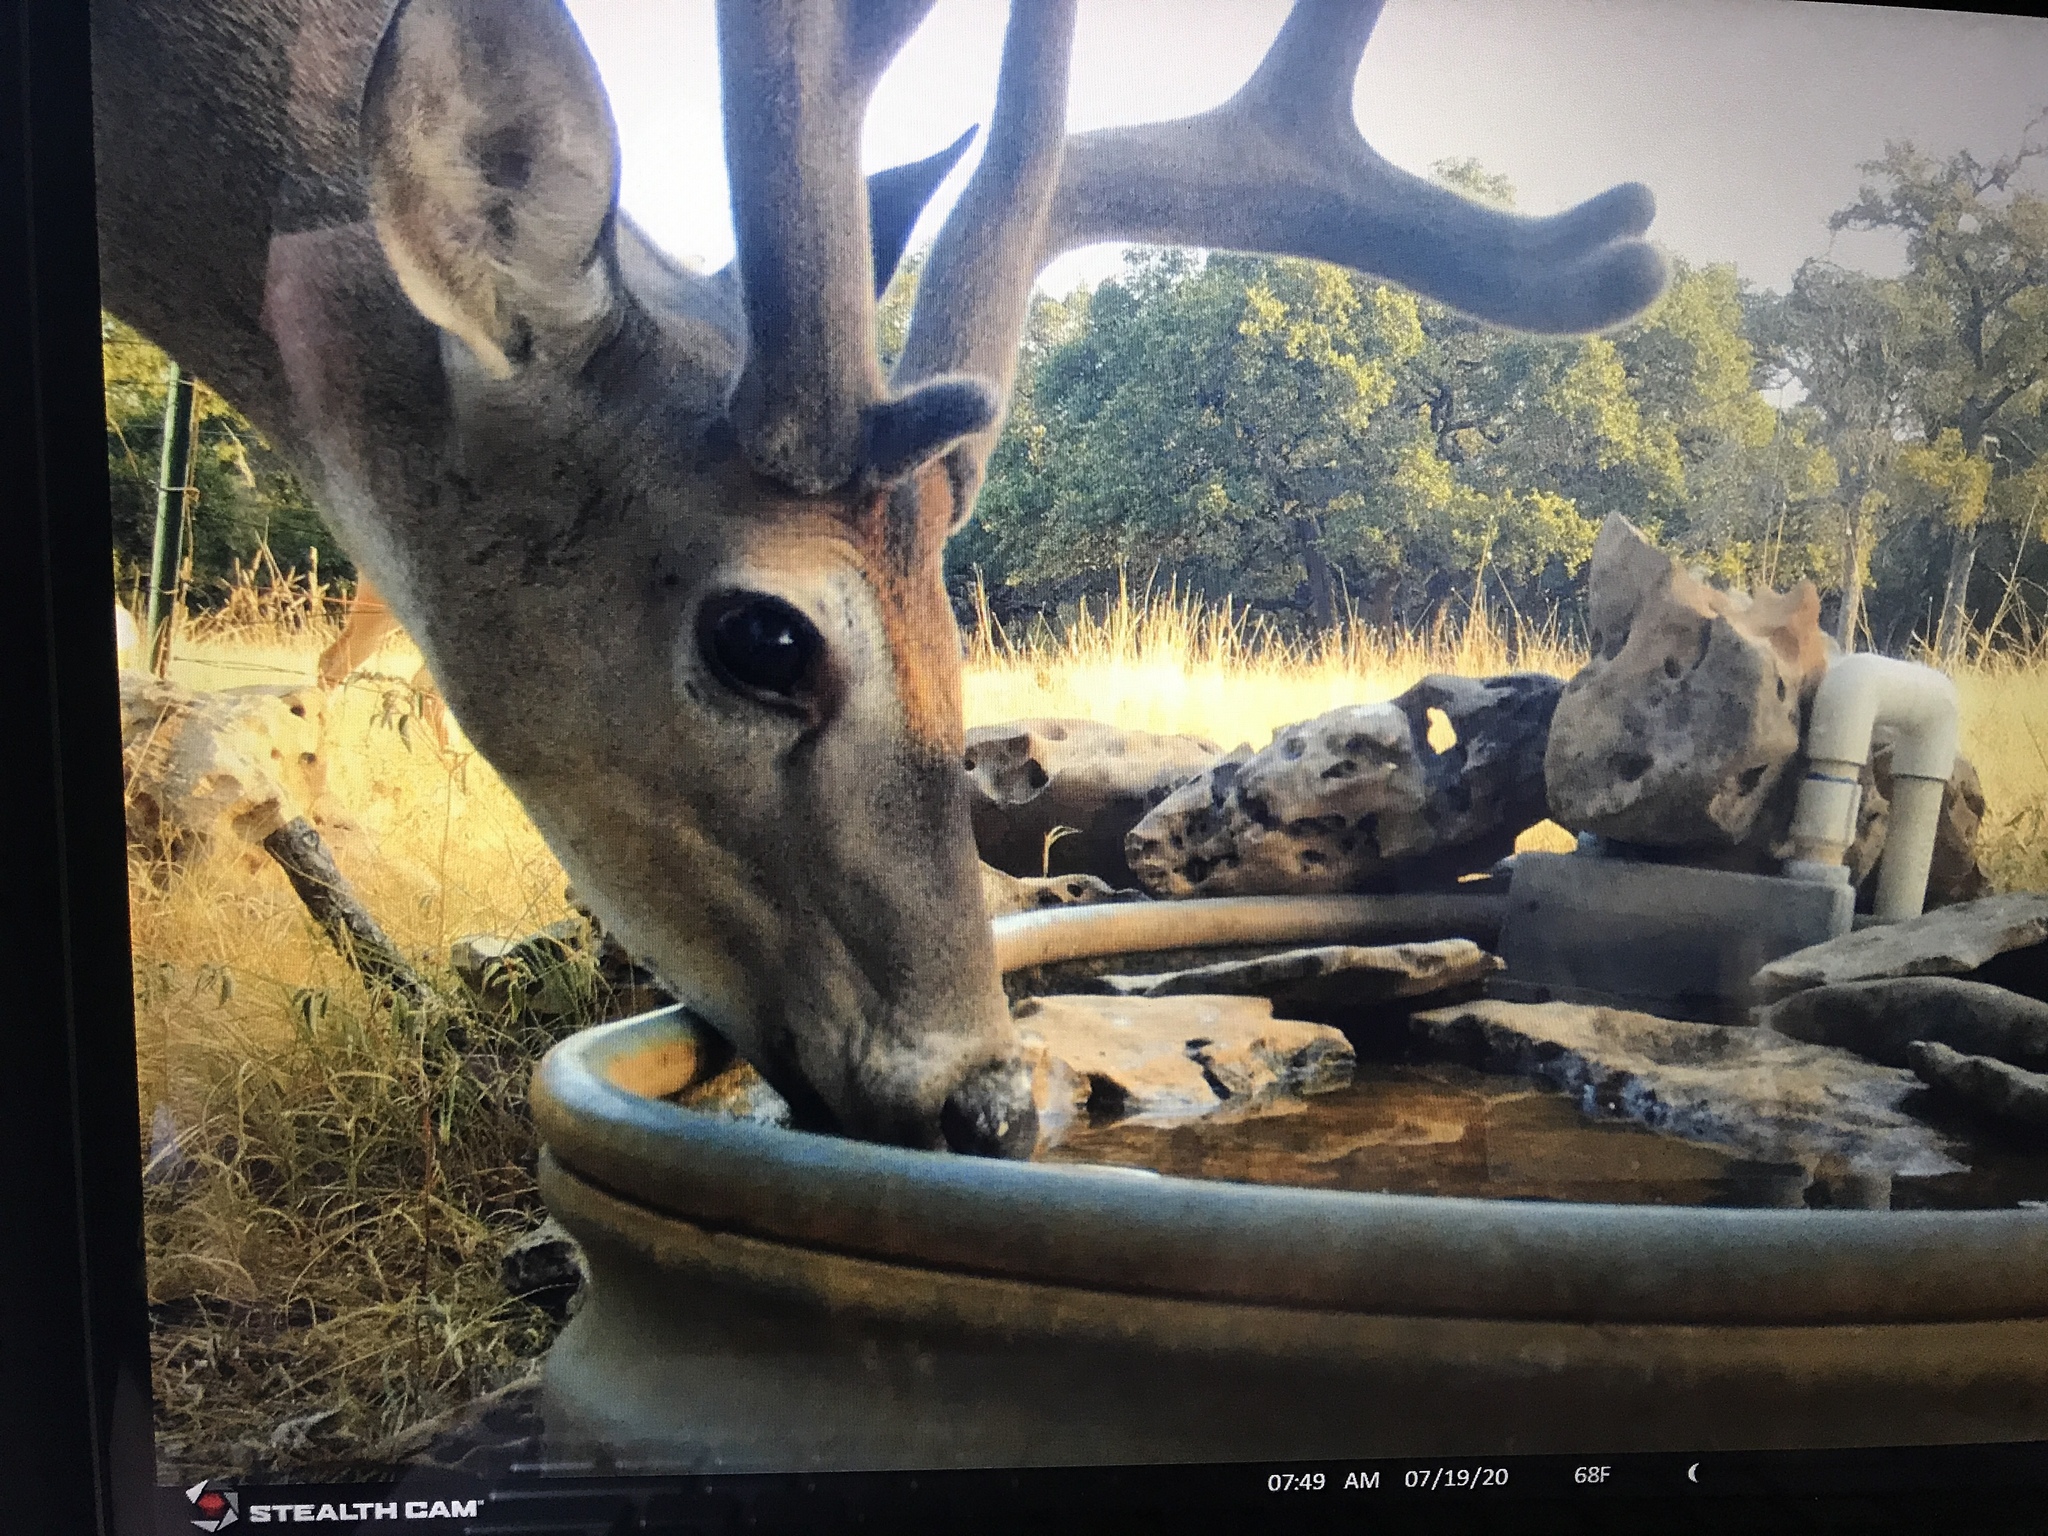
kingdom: Animalia
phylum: Chordata
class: Mammalia
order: Artiodactyla
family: Cervidae
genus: Odocoileus
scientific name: Odocoileus virginianus
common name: White-tailed deer
